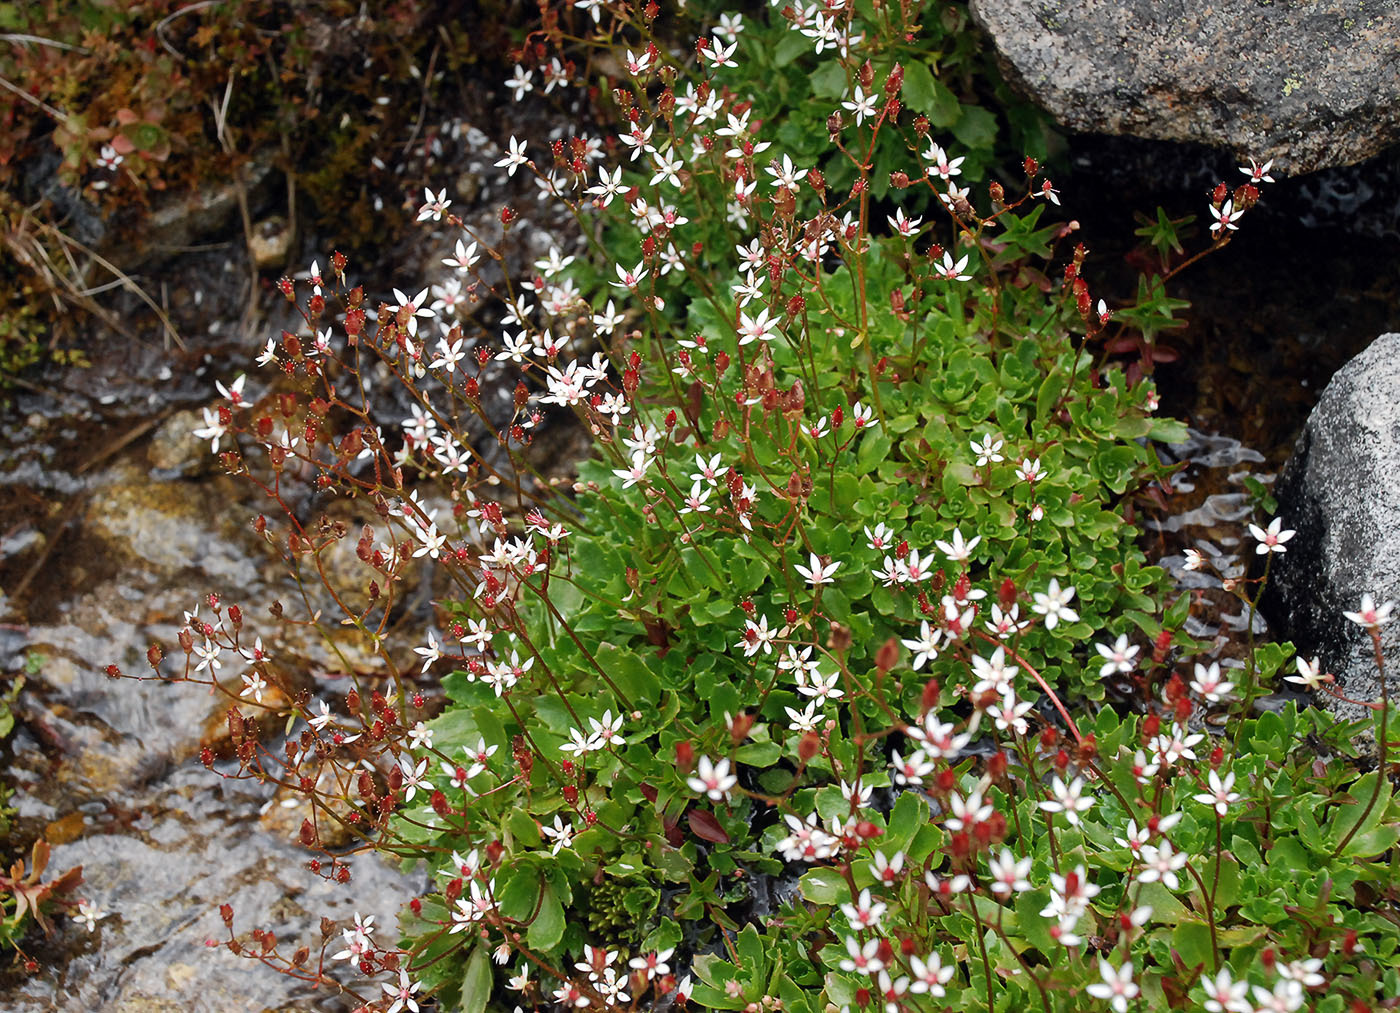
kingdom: Plantae
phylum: Tracheophyta
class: Magnoliopsida
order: Saxifragales
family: Saxifragaceae
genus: Micranthes
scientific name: Micranthes stellaris
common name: Starry saxifrage
